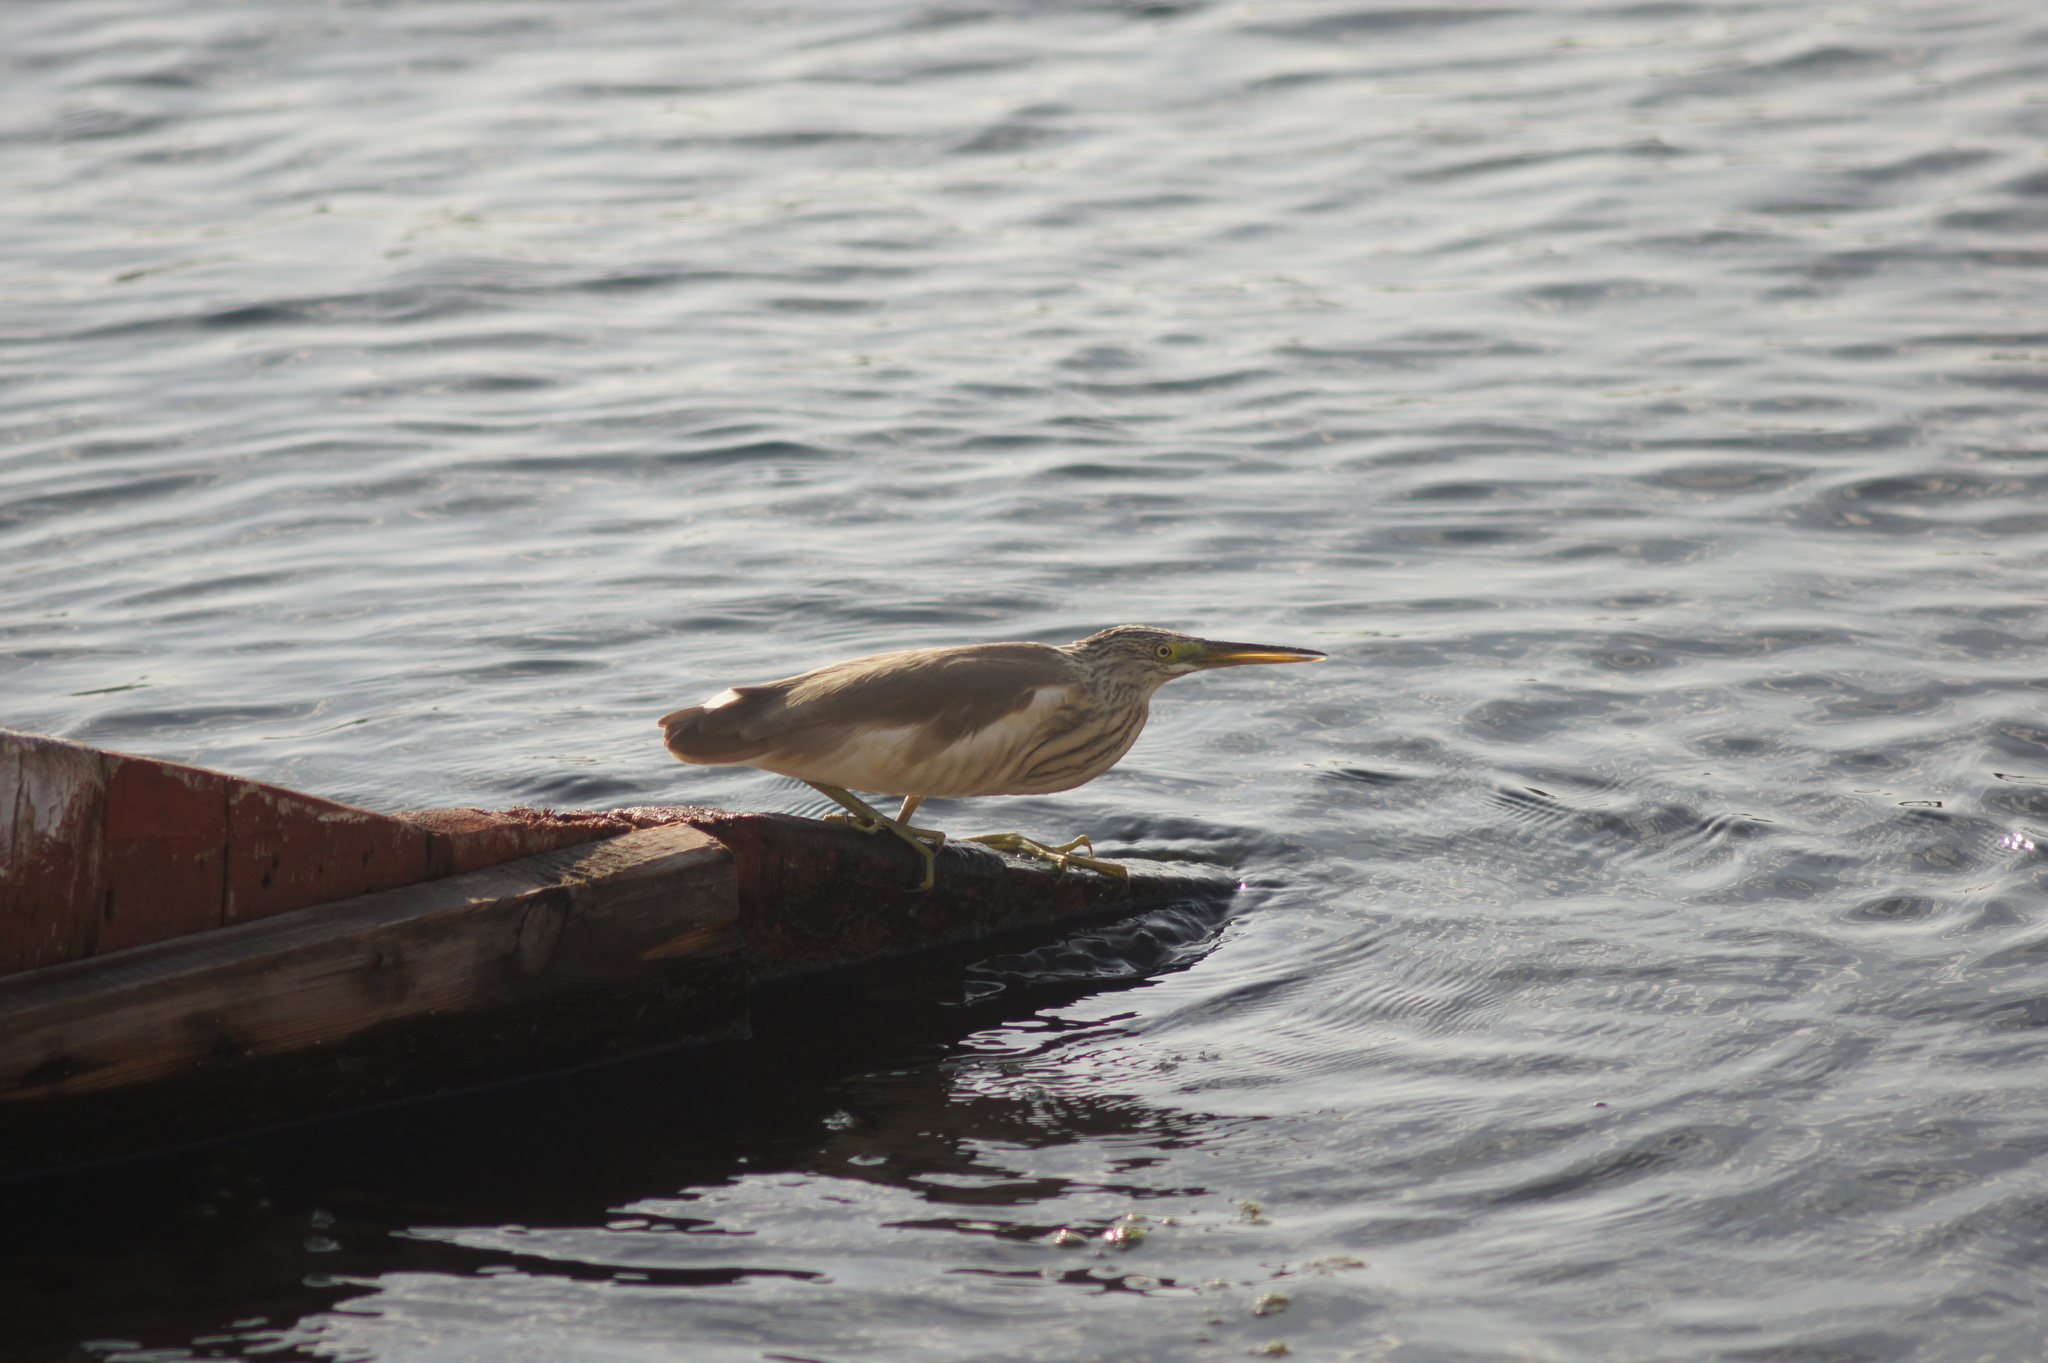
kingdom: Animalia
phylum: Chordata
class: Aves
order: Pelecaniformes
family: Ardeidae
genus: Ardeola
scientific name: Ardeola ralloides
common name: Squacco heron
